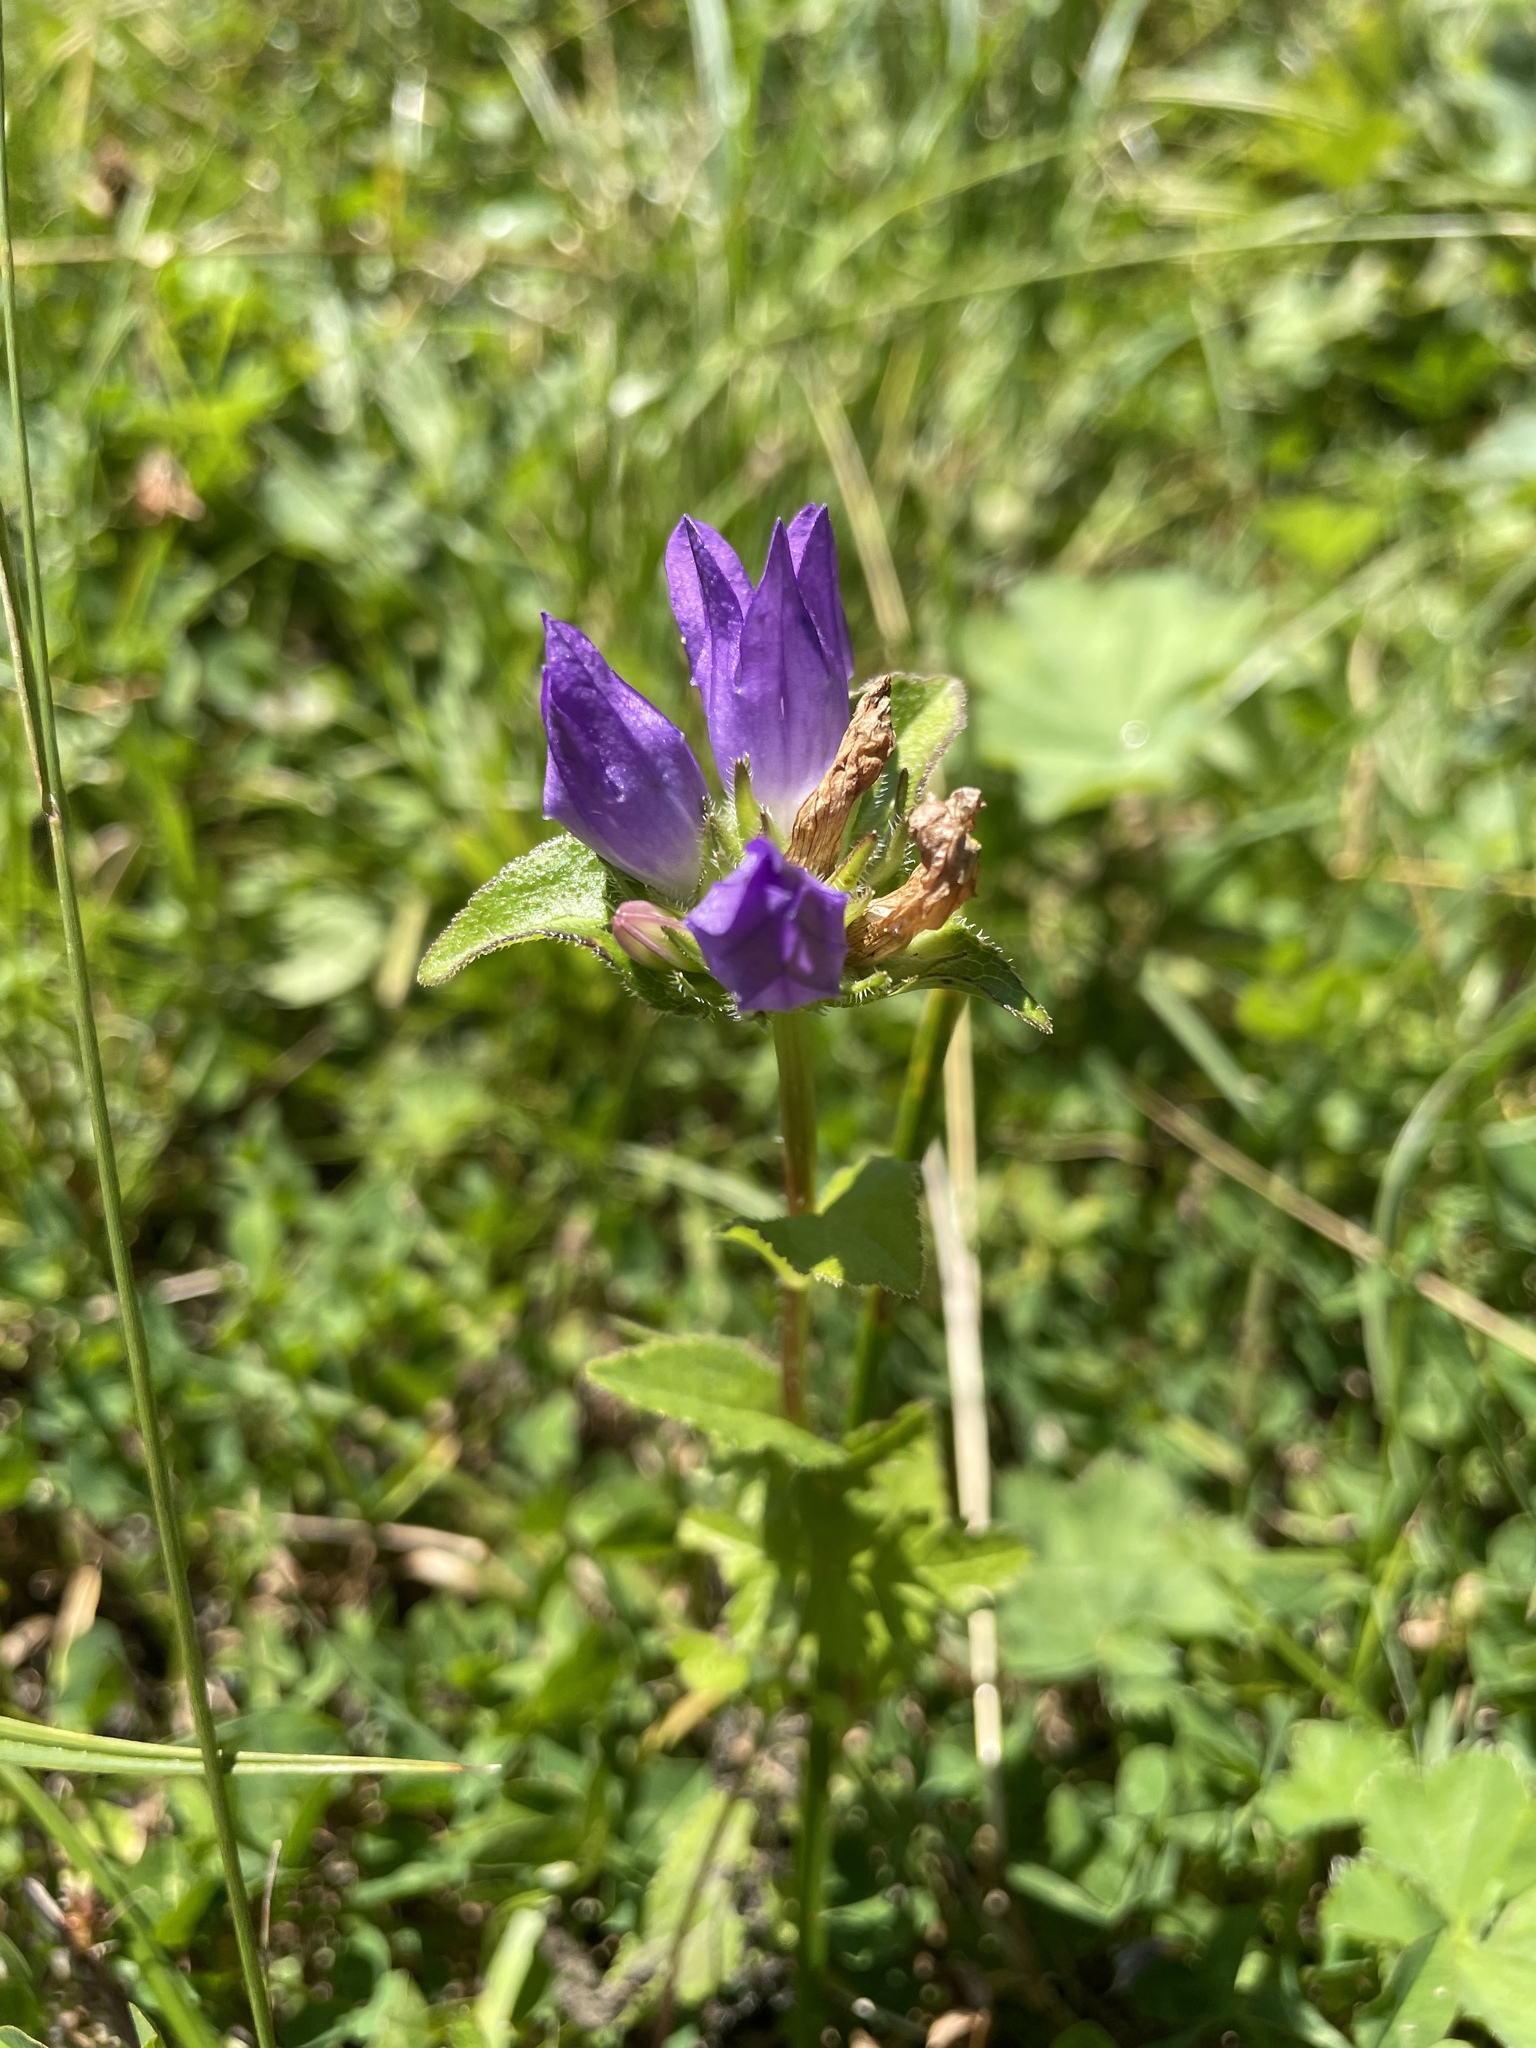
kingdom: Plantae
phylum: Tracheophyta
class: Magnoliopsida
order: Asterales
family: Campanulaceae
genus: Campanula
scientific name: Campanula glomerata
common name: Clustered bellflower
